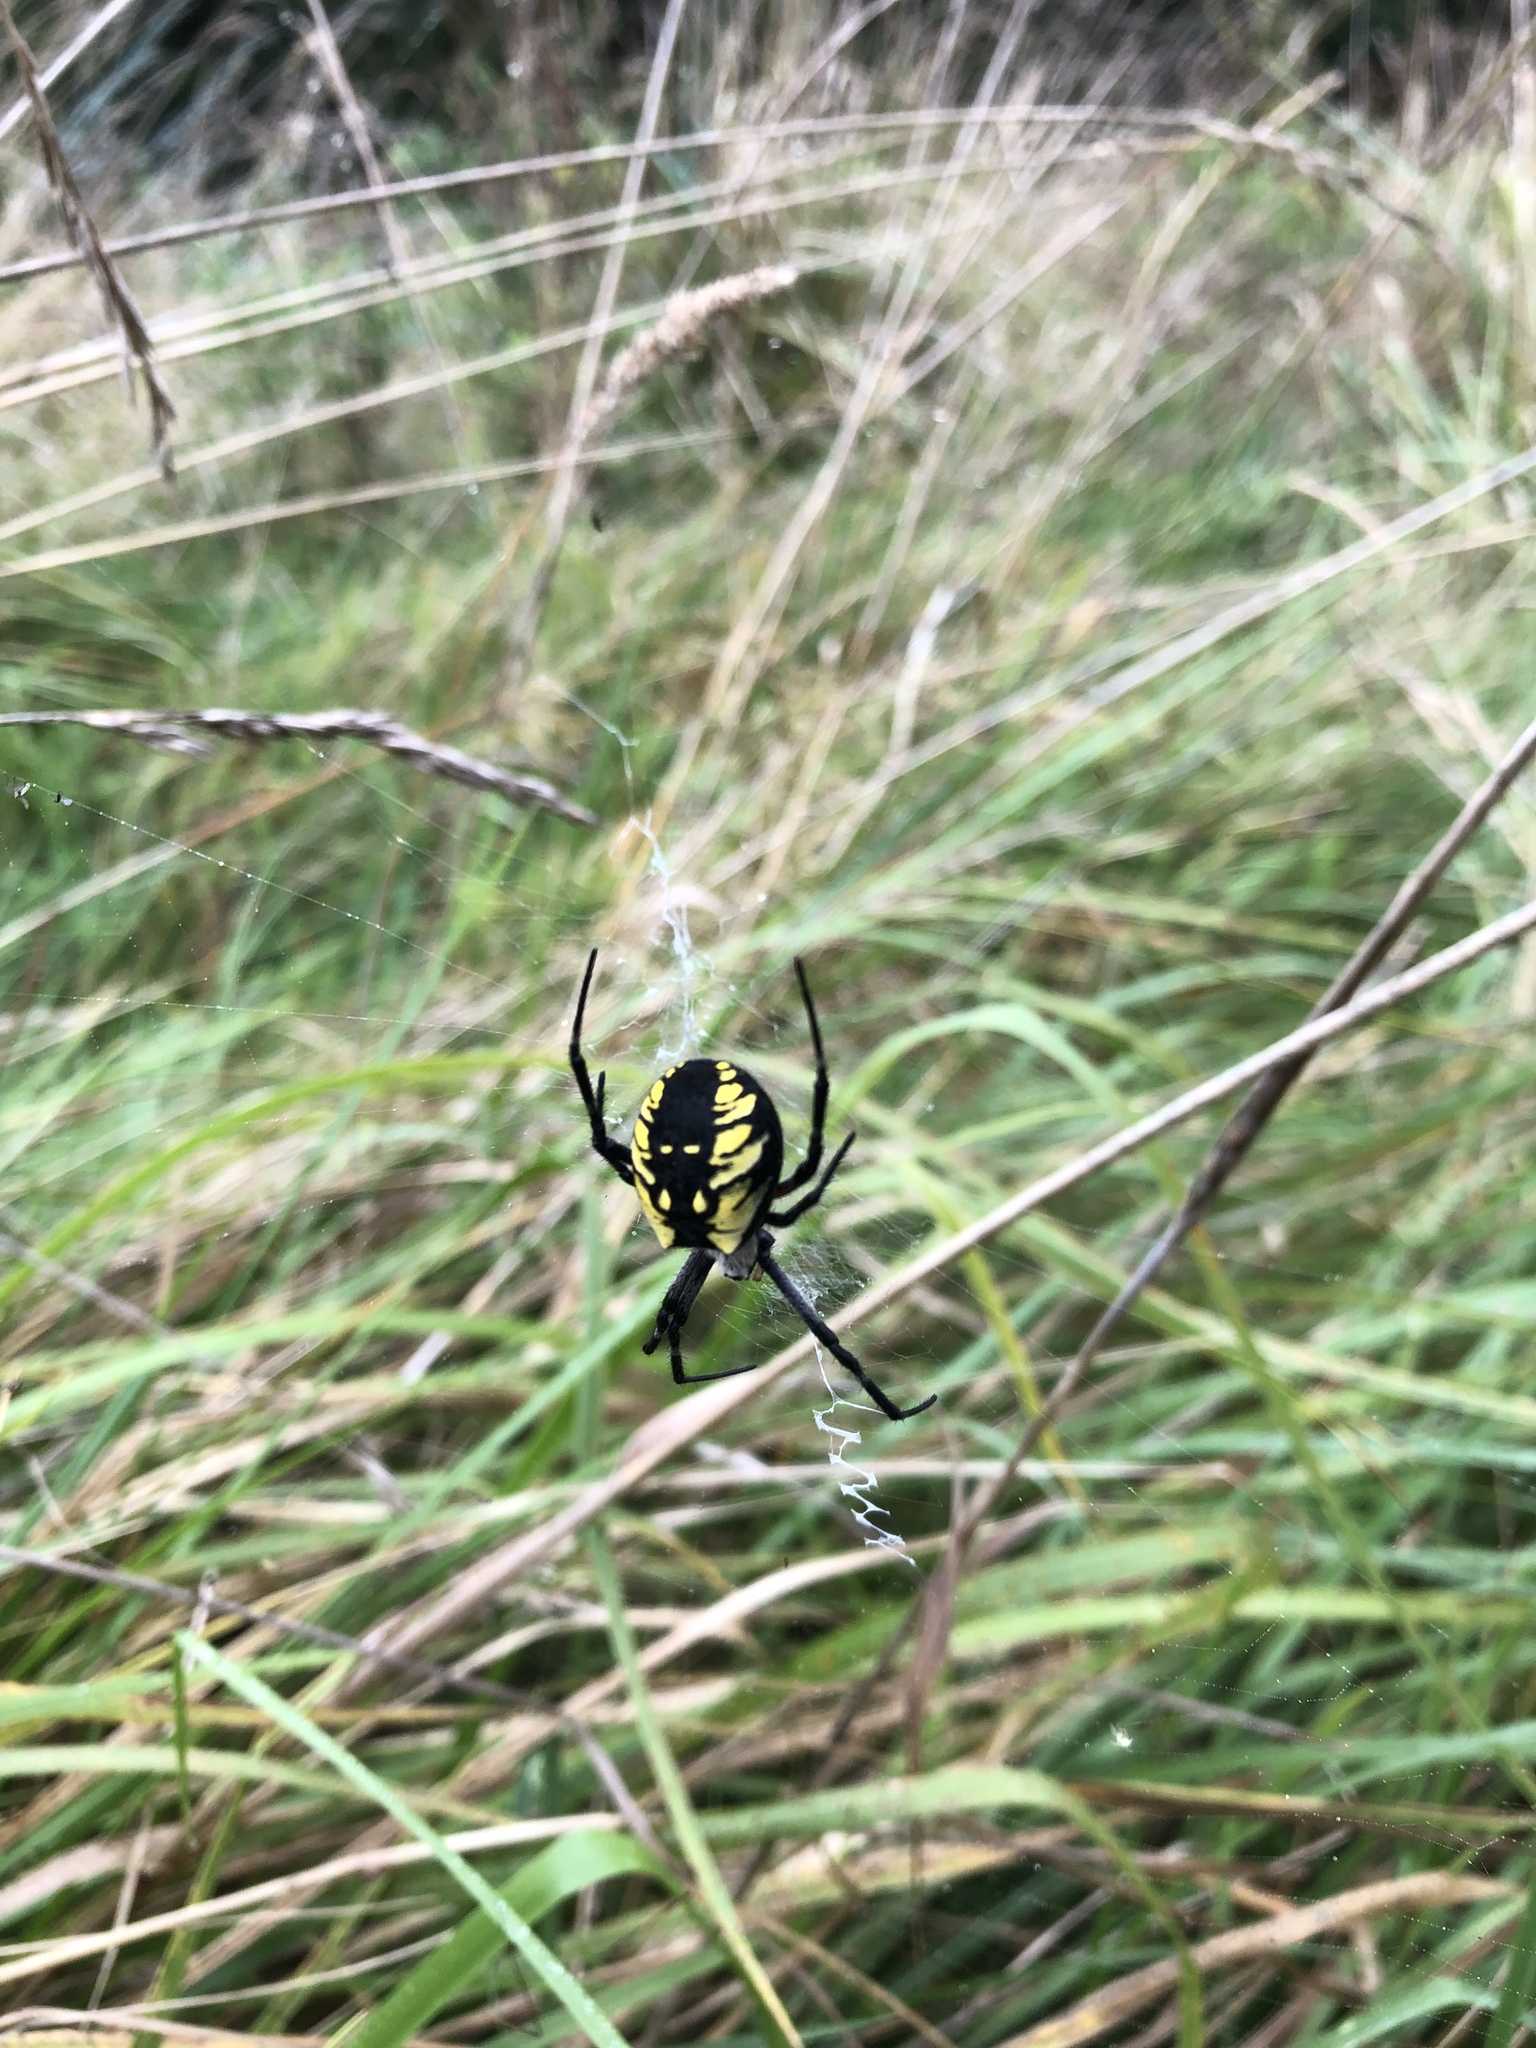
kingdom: Animalia
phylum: Arthropoda
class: Arachnida
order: Araneae
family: Araneidae
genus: Argiope
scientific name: Argiope aurantia
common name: Orb weavers
